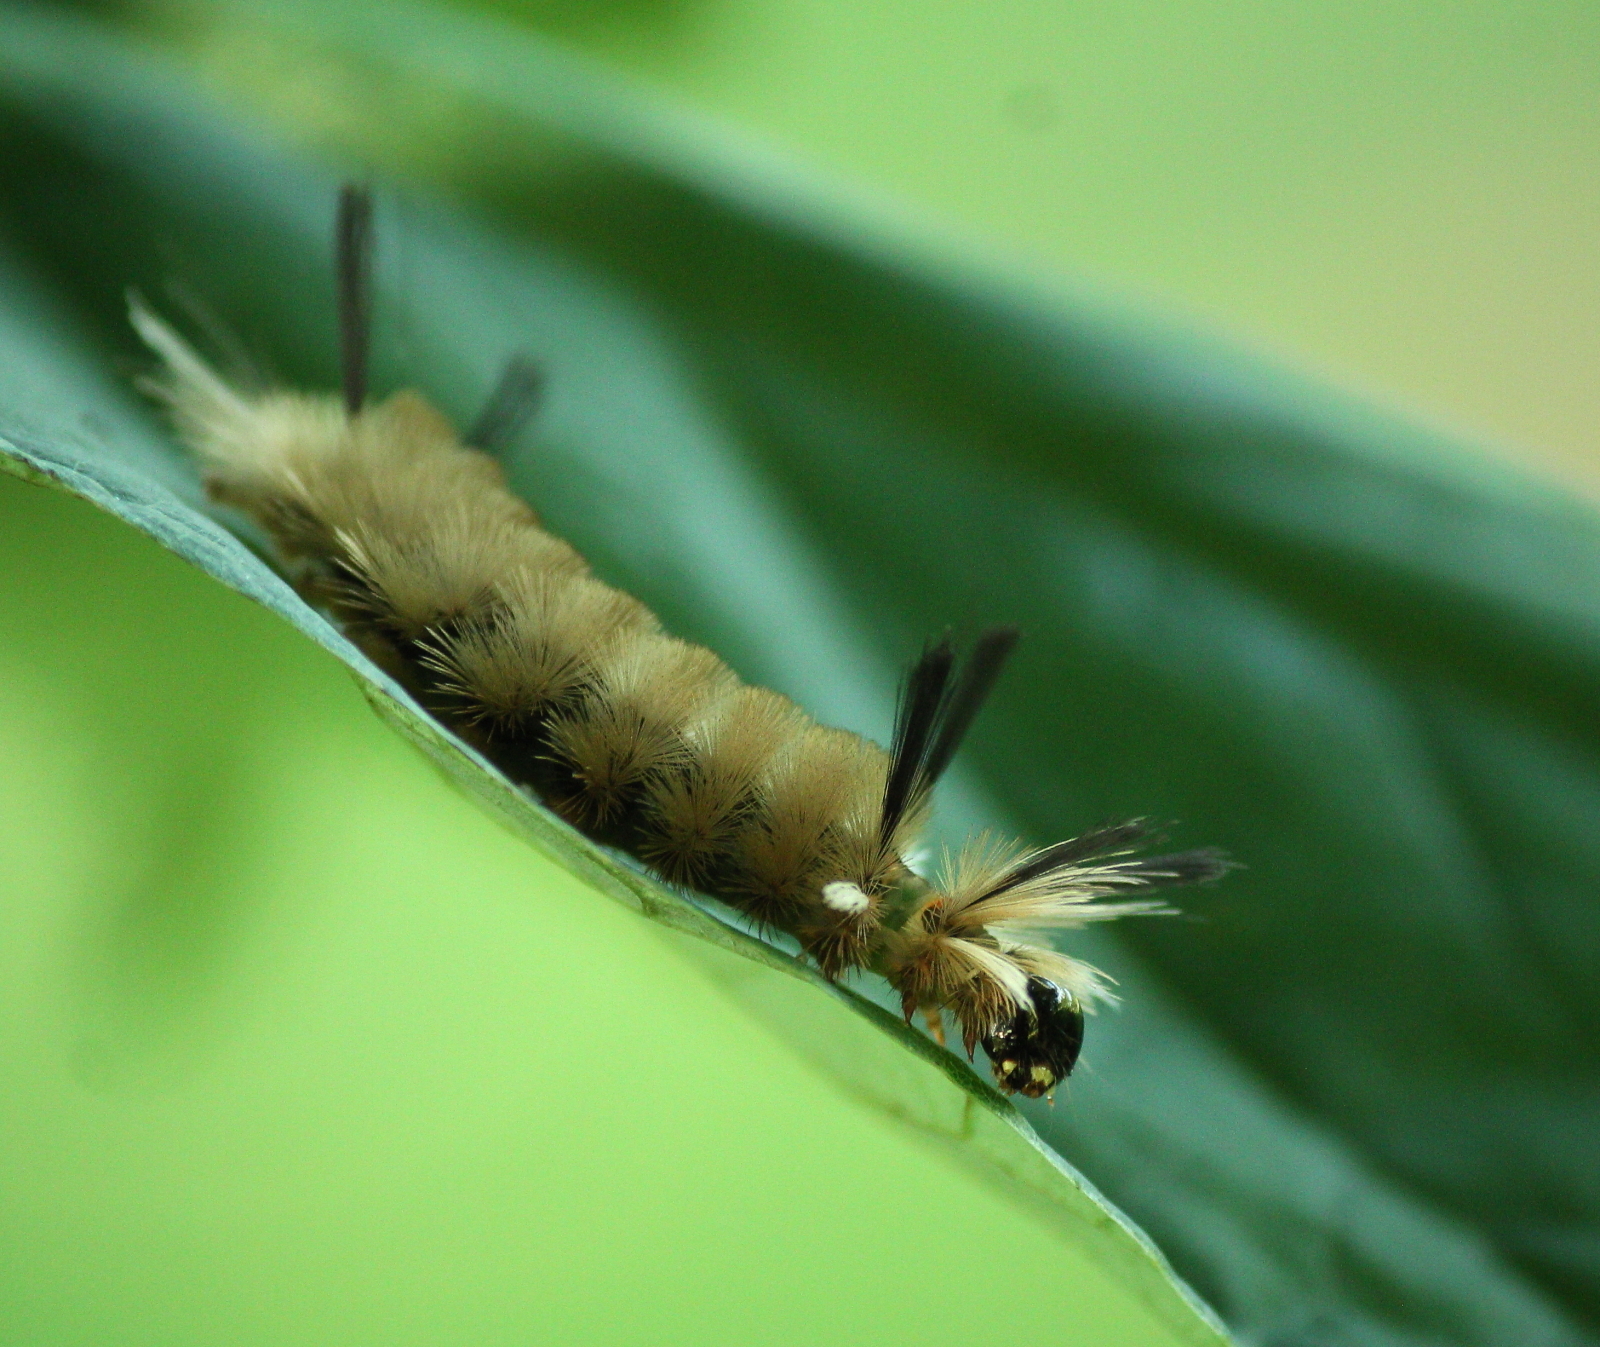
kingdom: Animalia
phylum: Arthropoda
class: Insecta
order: Lepidoptera
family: Erebidae
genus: Halysidota
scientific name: Halysidota tessellaris
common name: Banded tussock moth
